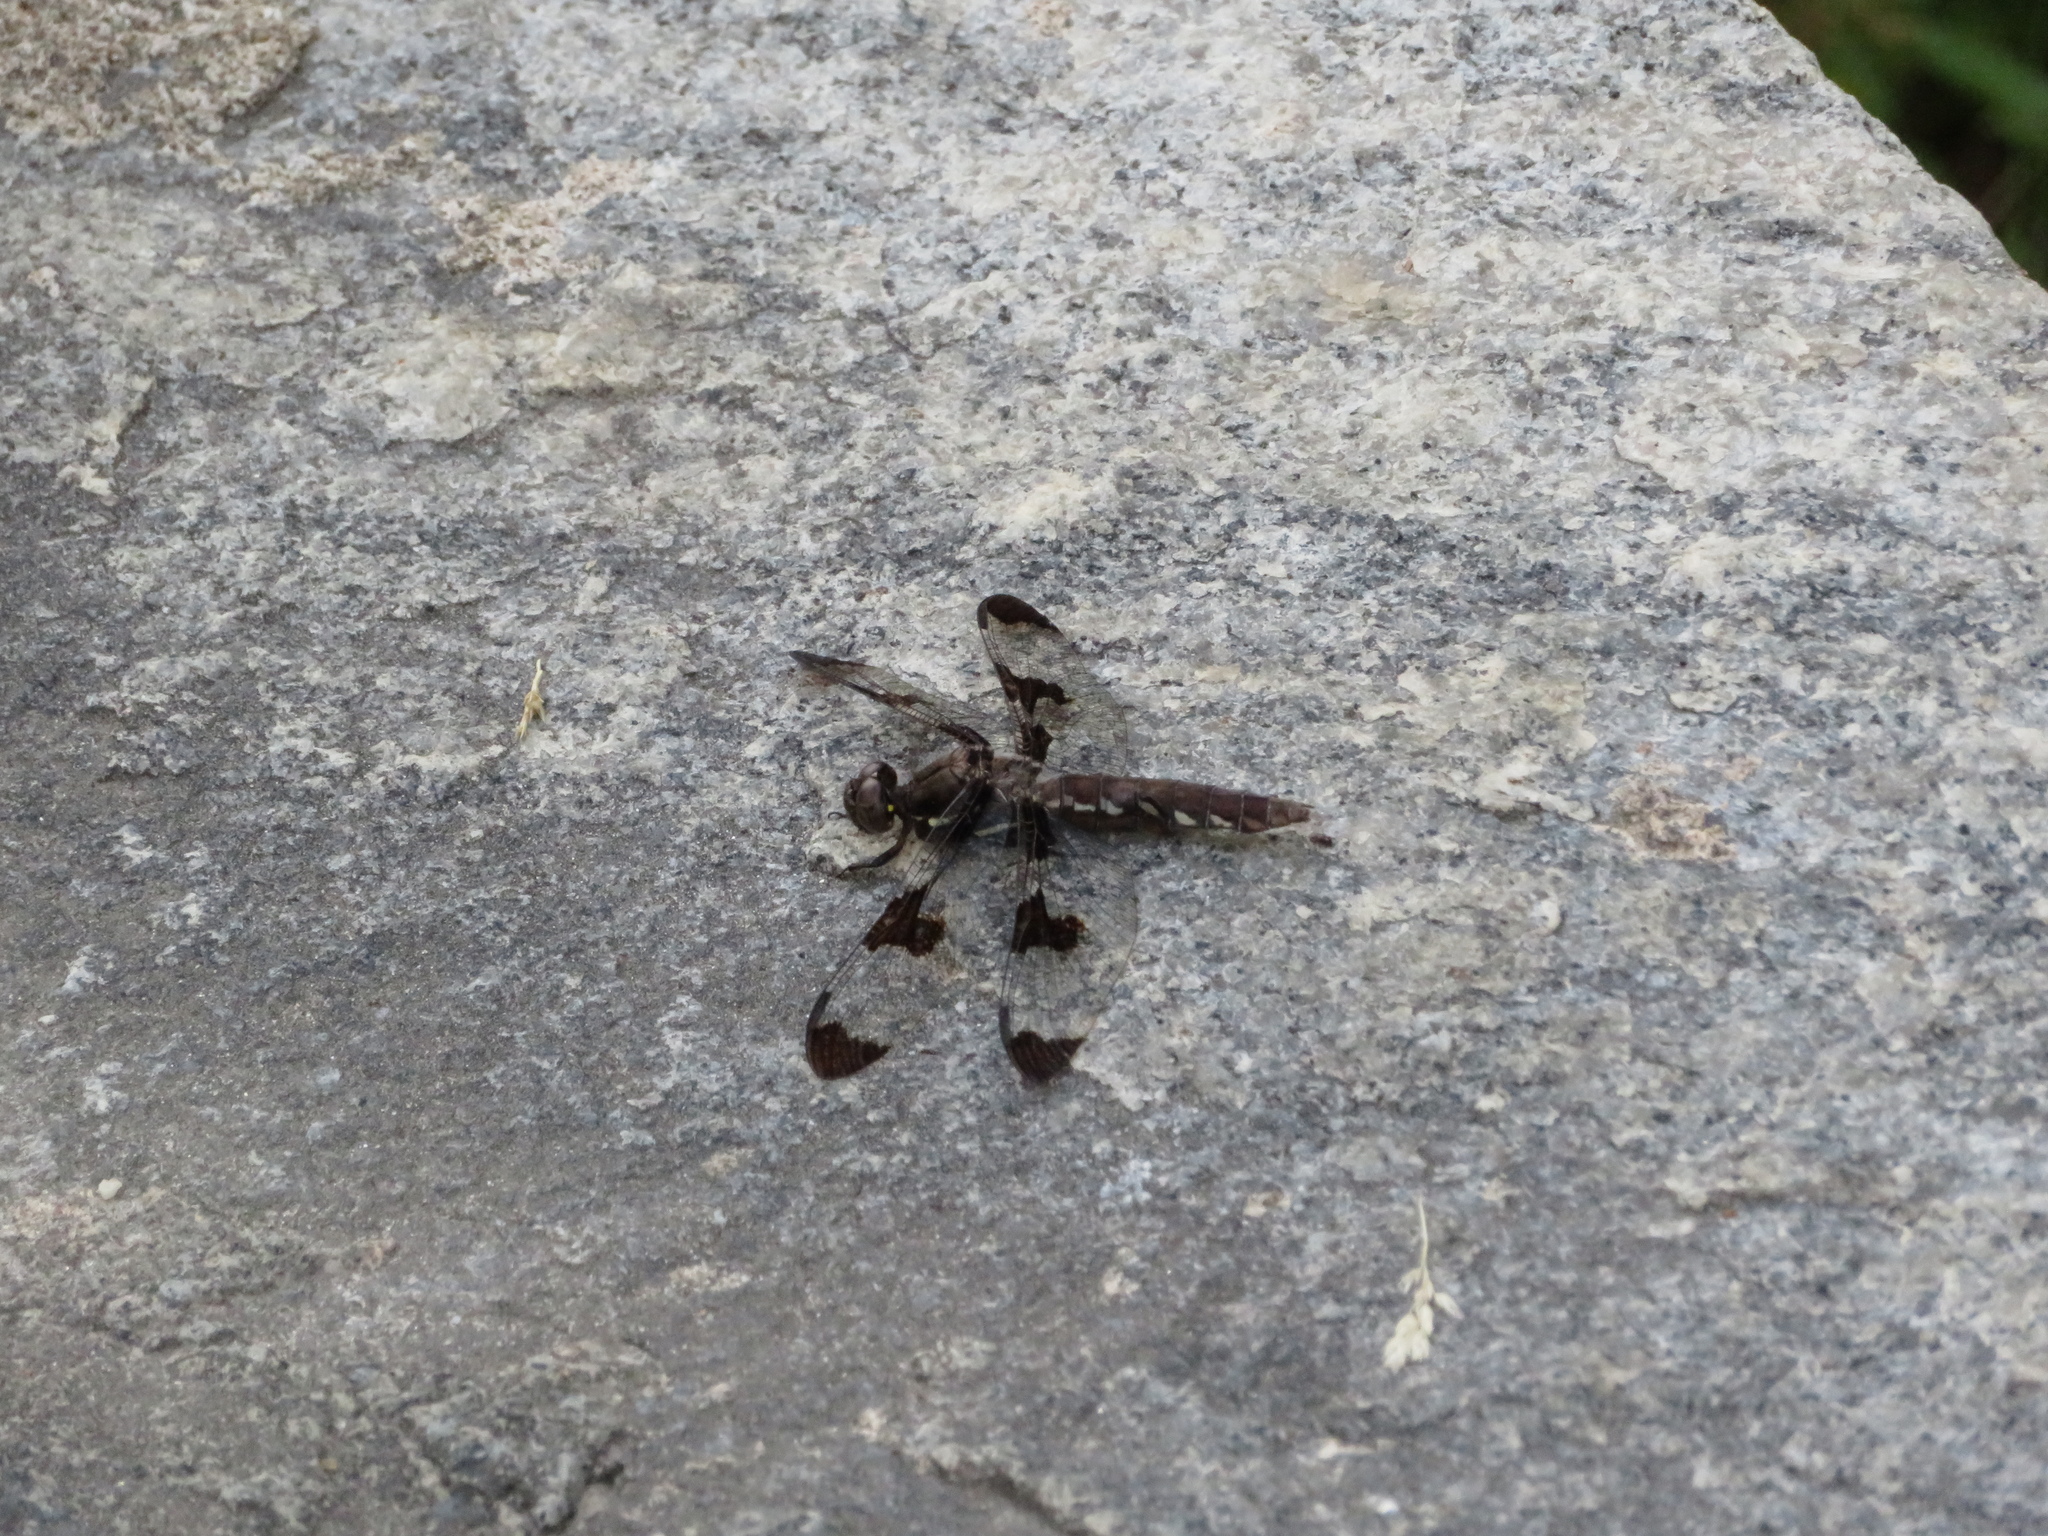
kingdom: Animalia
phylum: Arthropoda
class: Insecta
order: Odonata
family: Libellulidae
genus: Plathemis
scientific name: Plathemis lydia
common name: Common whitetail
